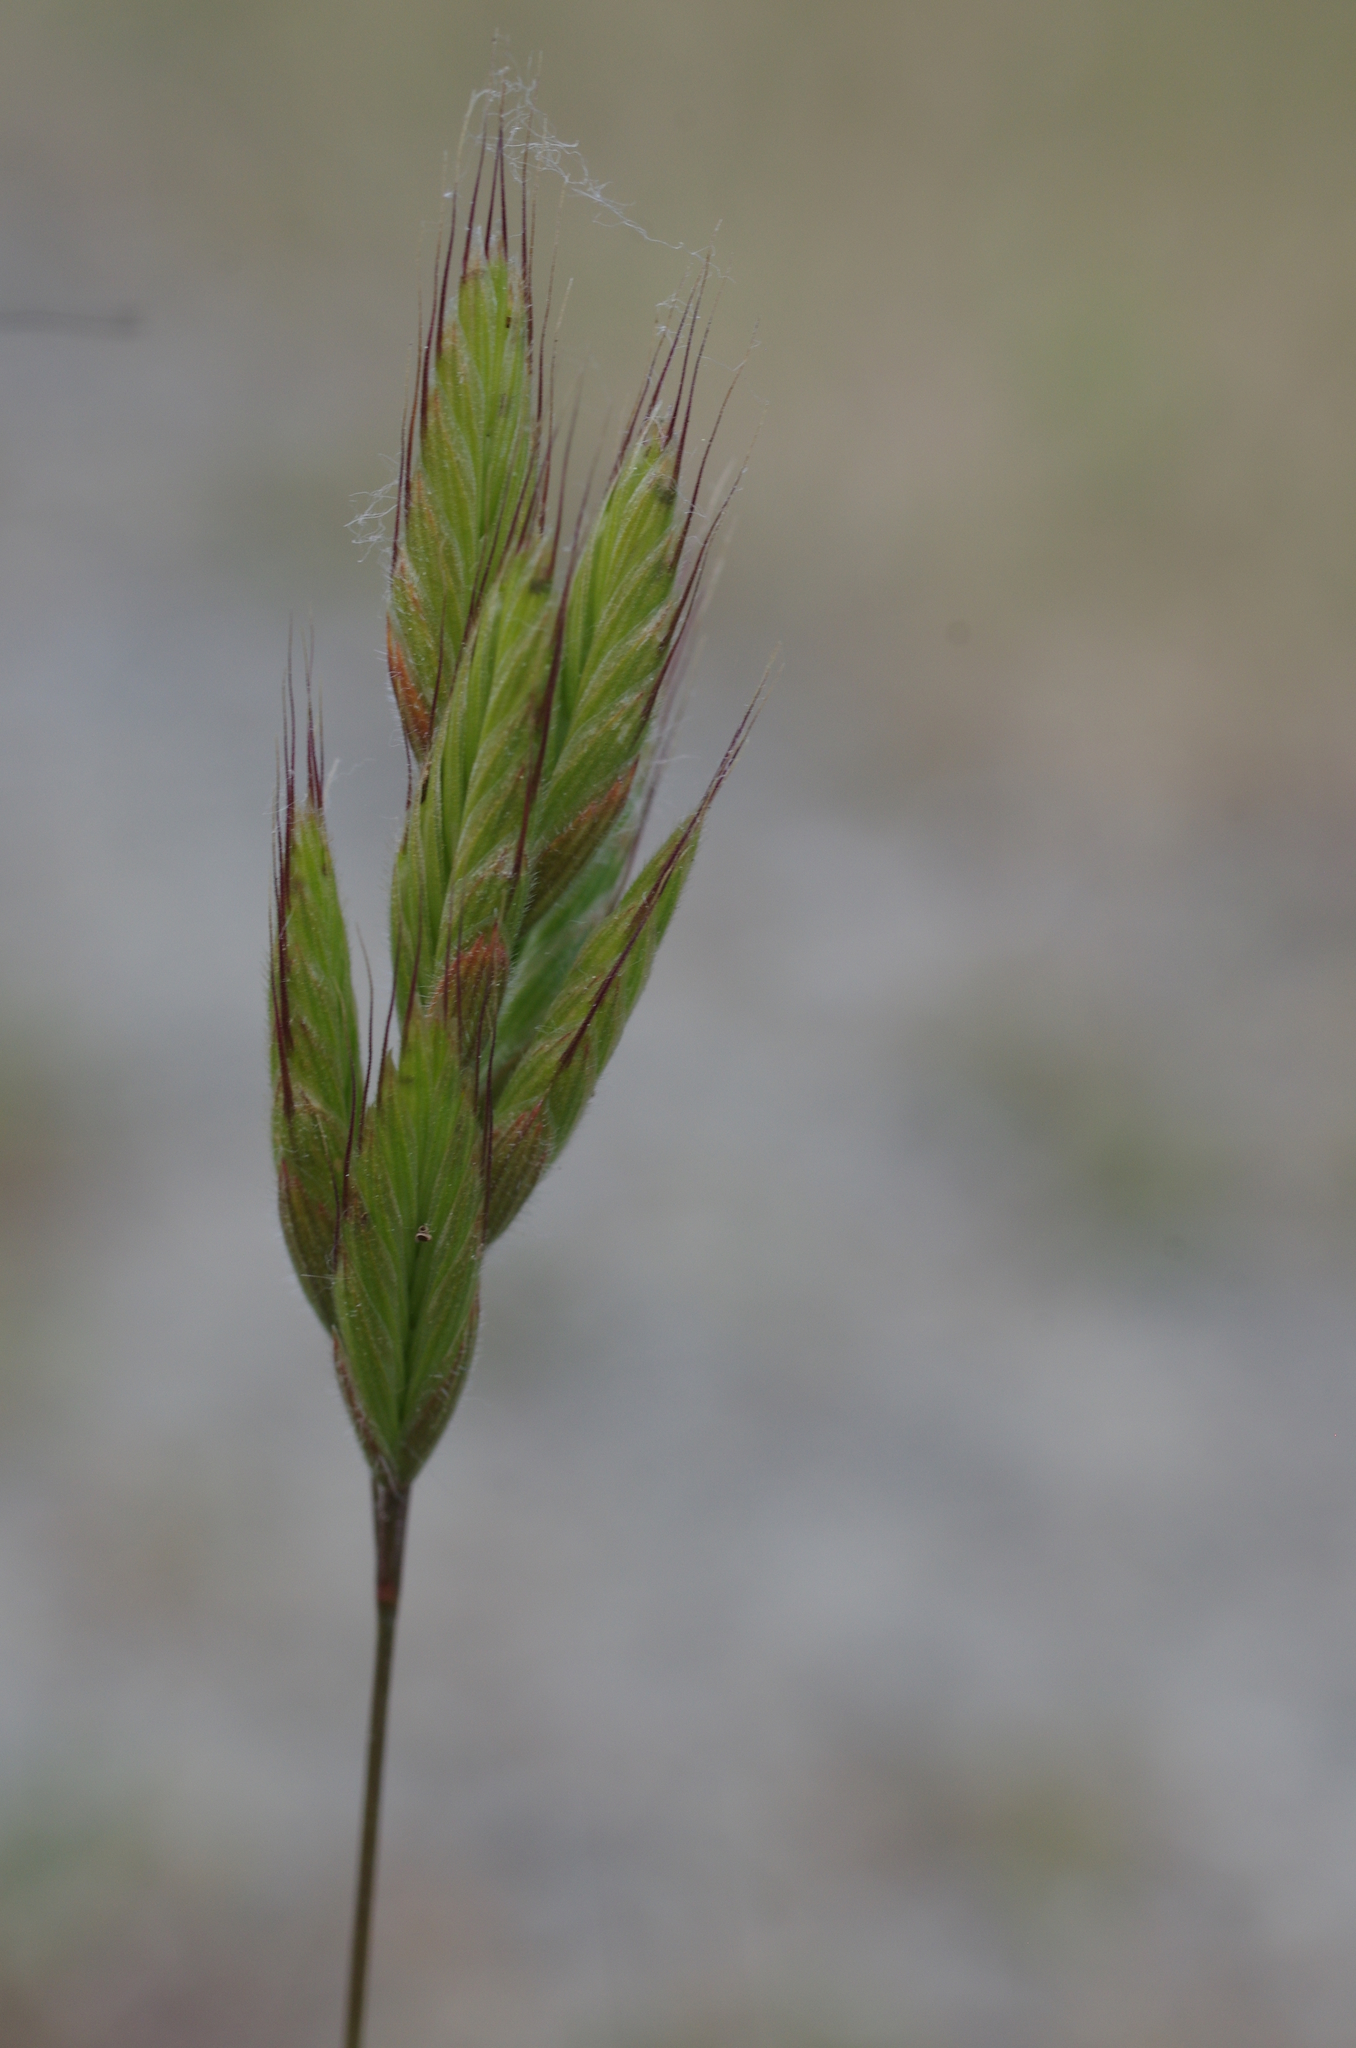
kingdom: Plantae
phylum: Tracheophyta
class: Liliopsida
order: Poales
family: Poaceae
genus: Bromus
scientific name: Bromus hordeaceus
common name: Soft brome
